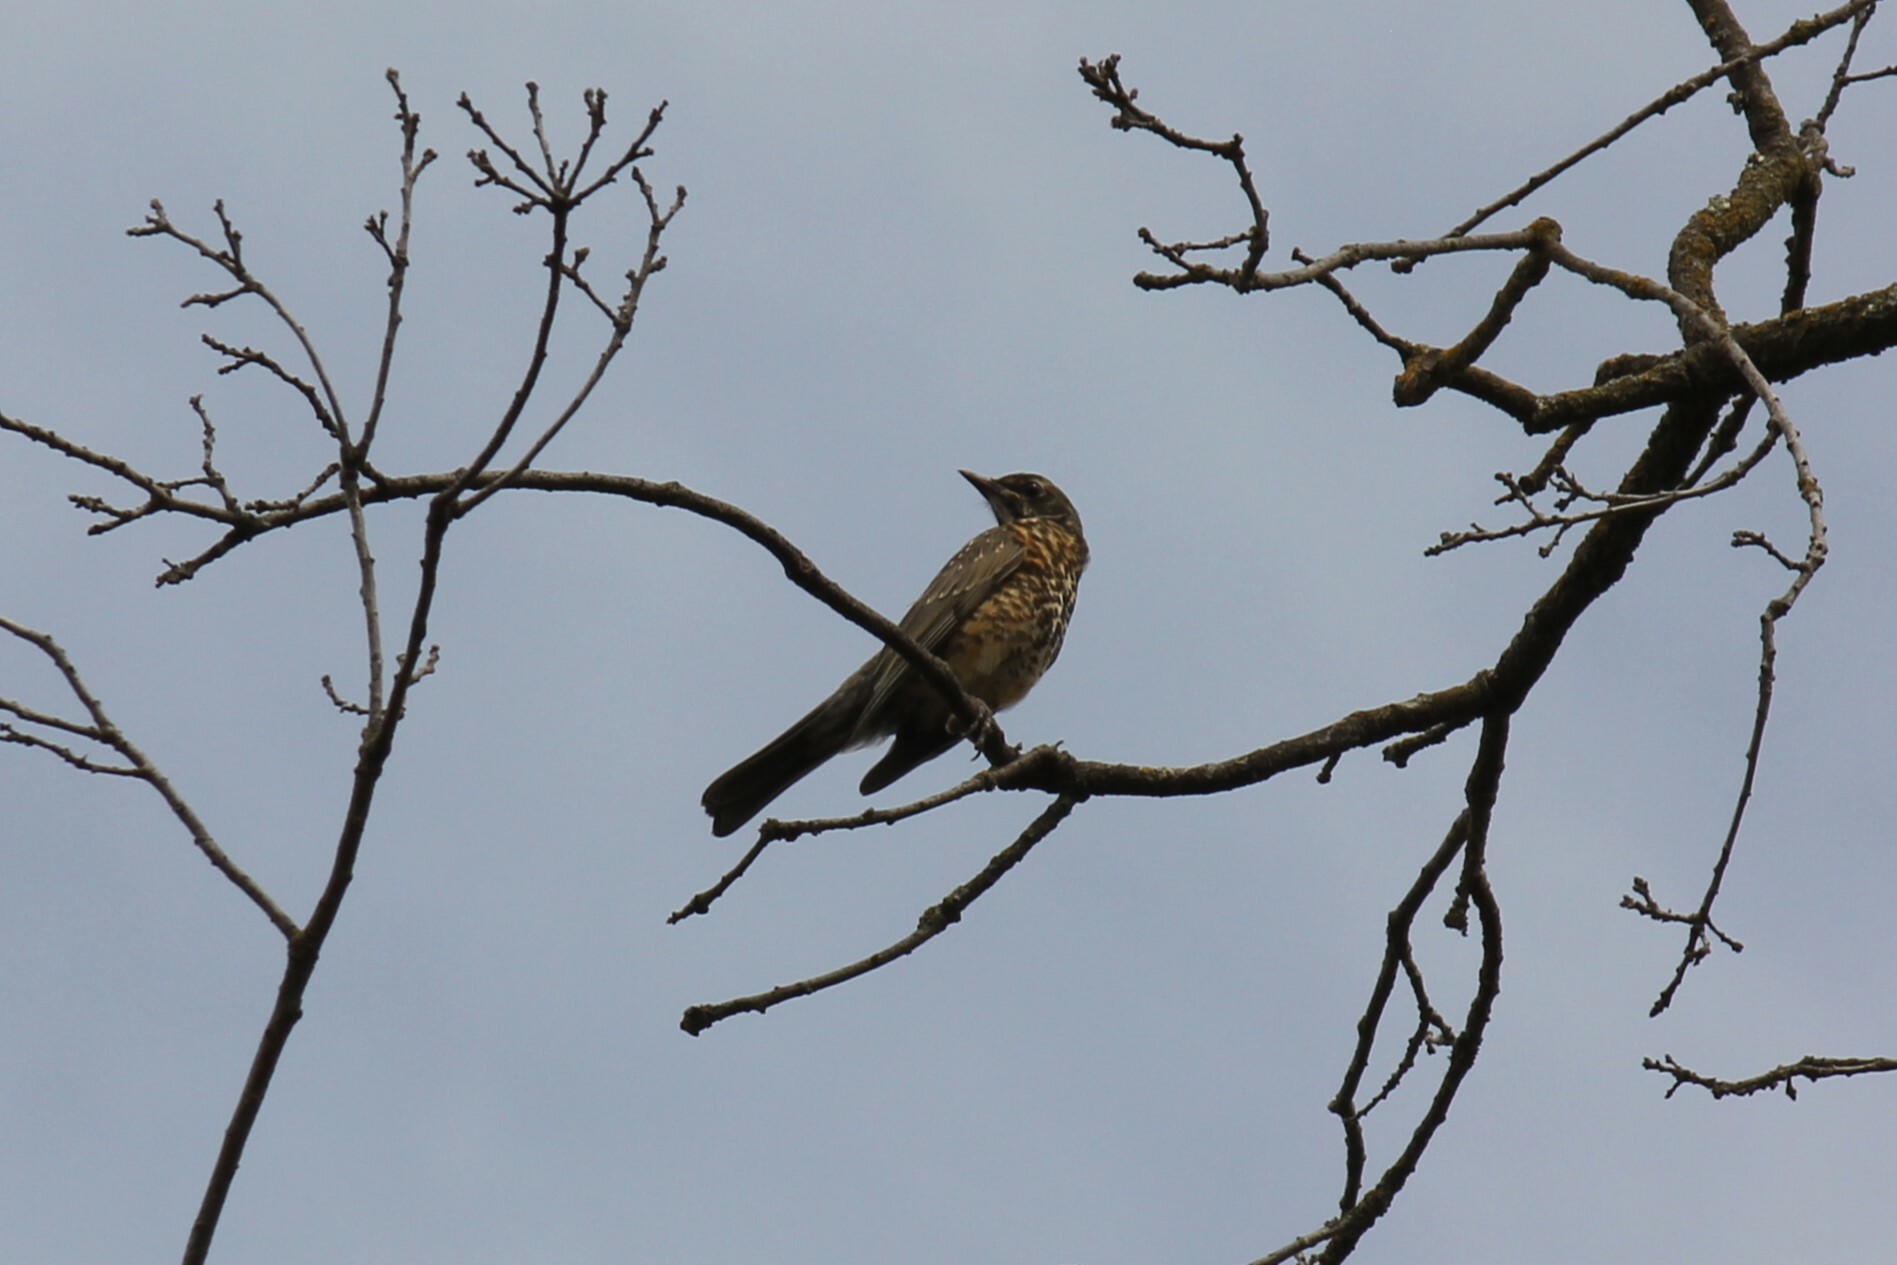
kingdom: Animalia
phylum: Chordata
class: Aves
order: Passeriformes
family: Turdidae
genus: Turdus
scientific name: Turdus migratorius
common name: American robin
